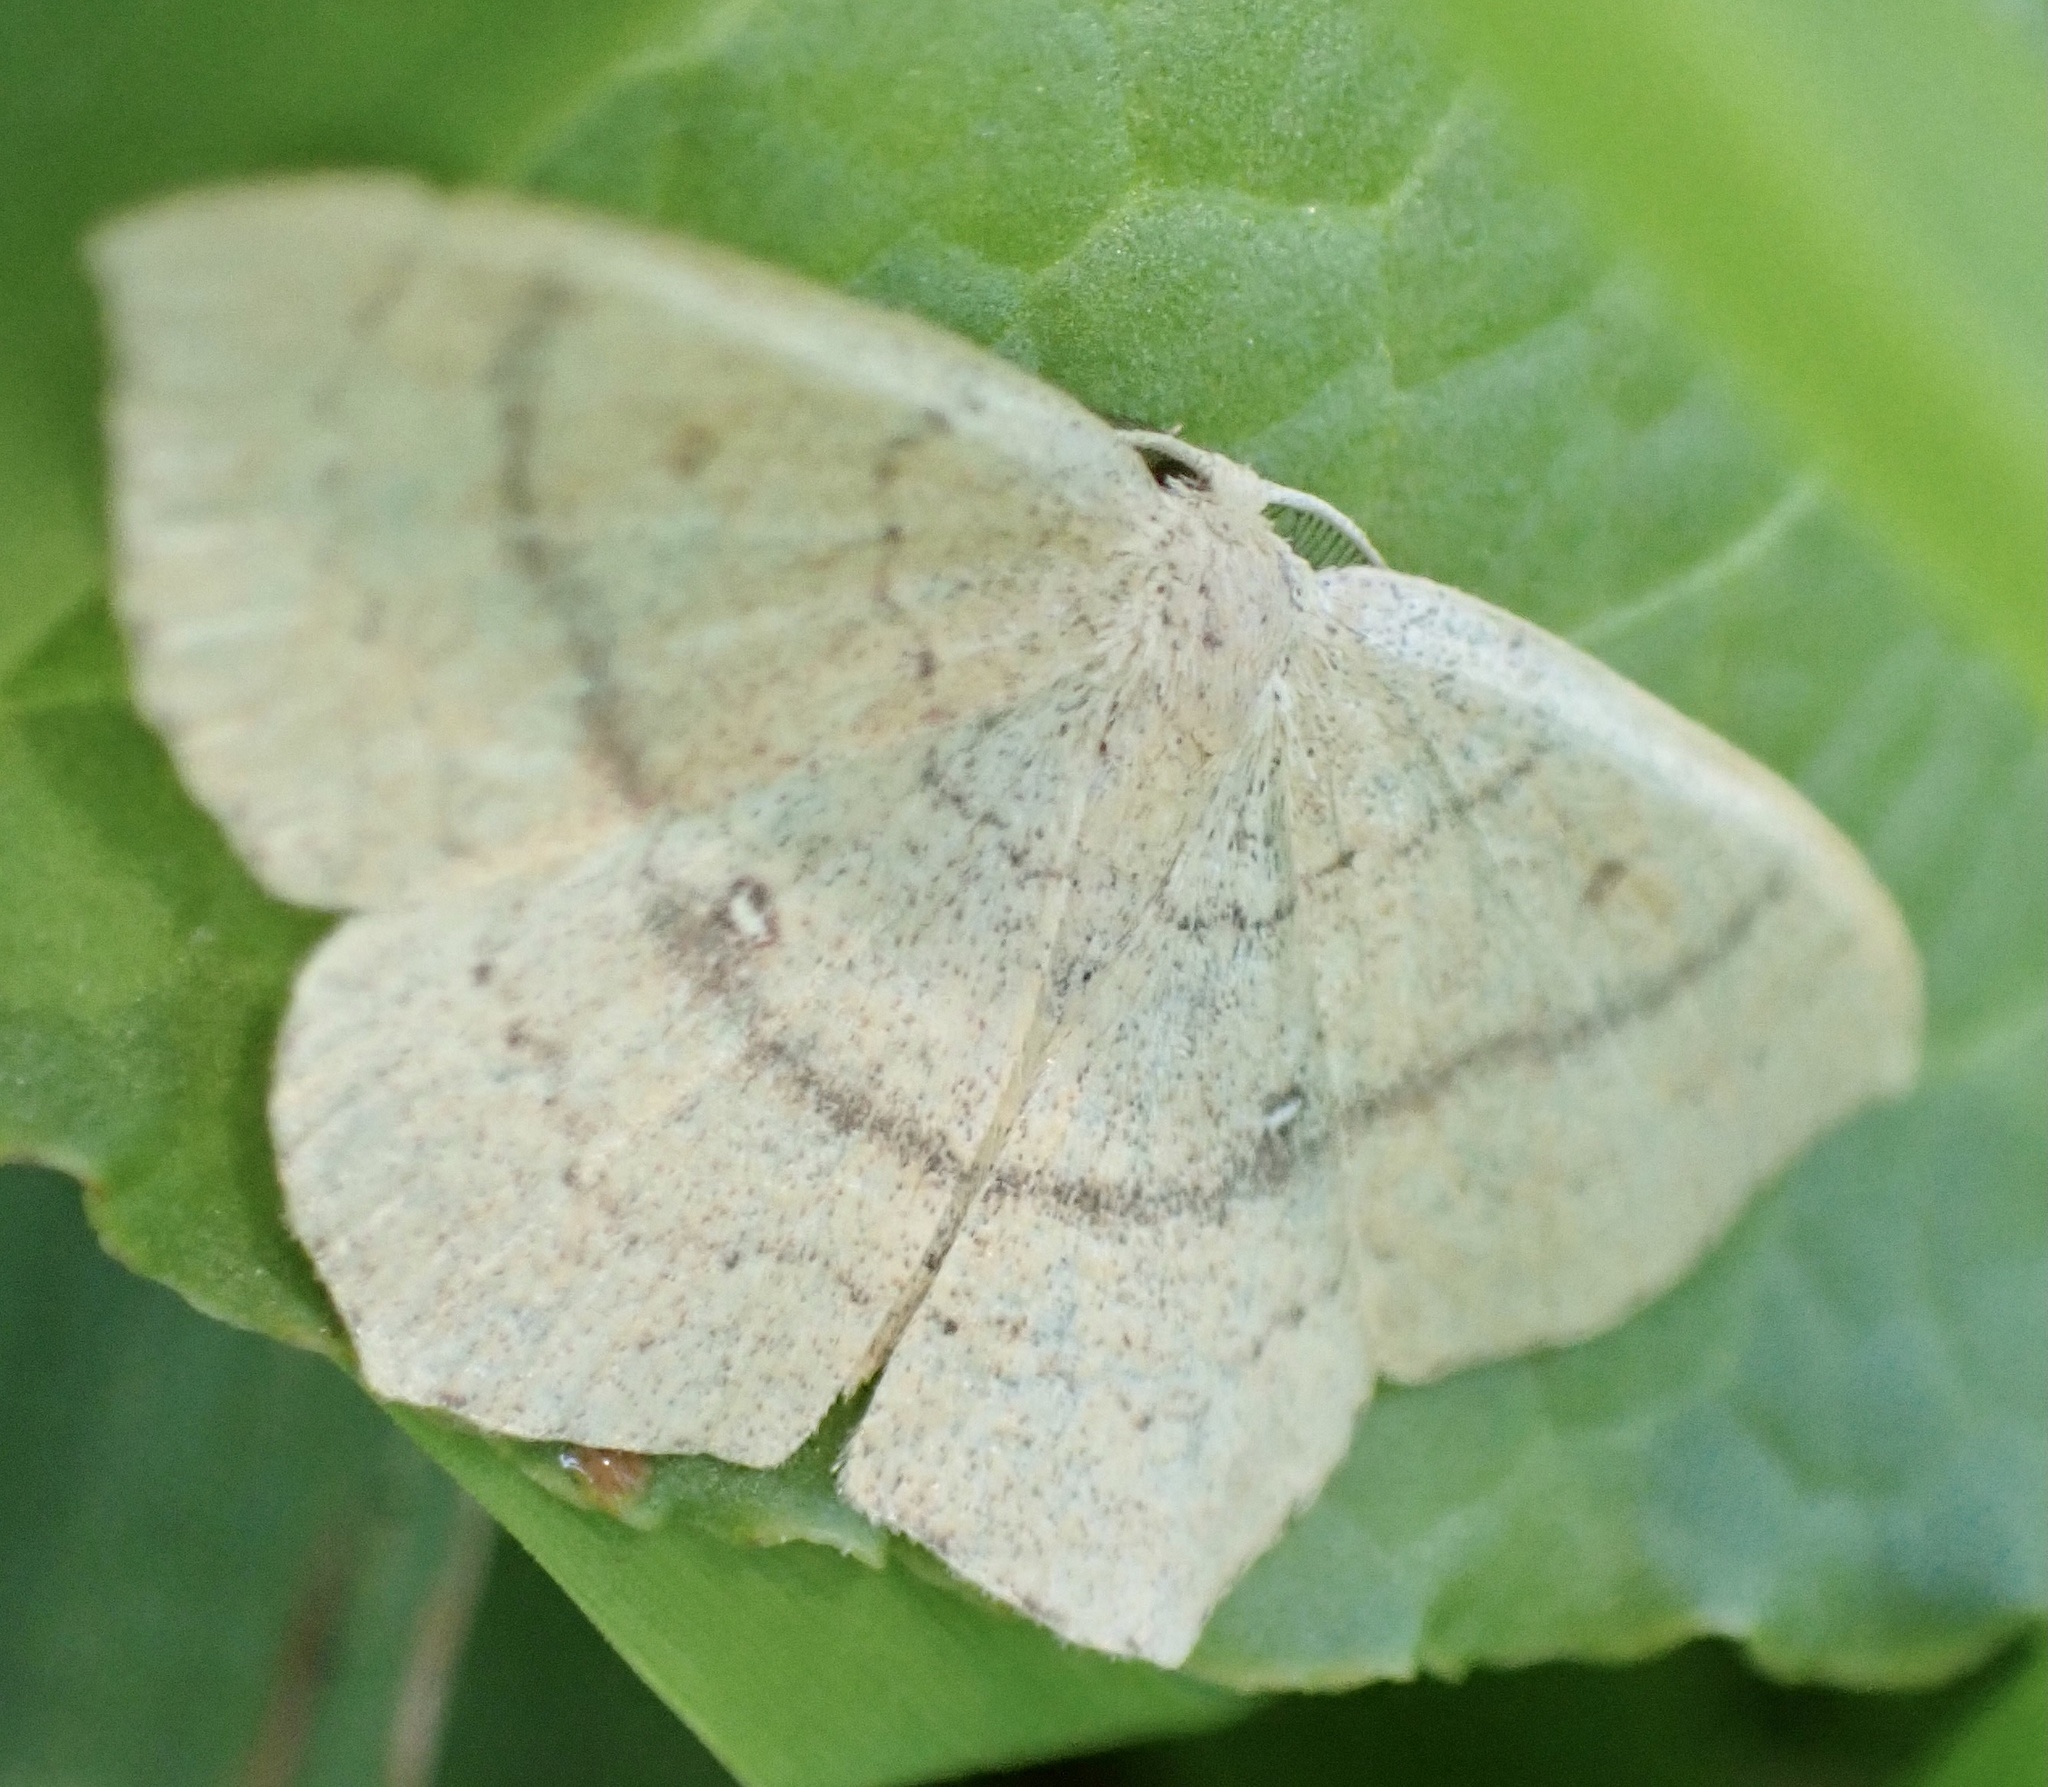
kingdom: Animalia
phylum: Arthropoda
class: Insecta
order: Lepidoptera
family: Geometridae
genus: Cyclophora
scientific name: Cyclophora linearia
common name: Clay triple-lines
